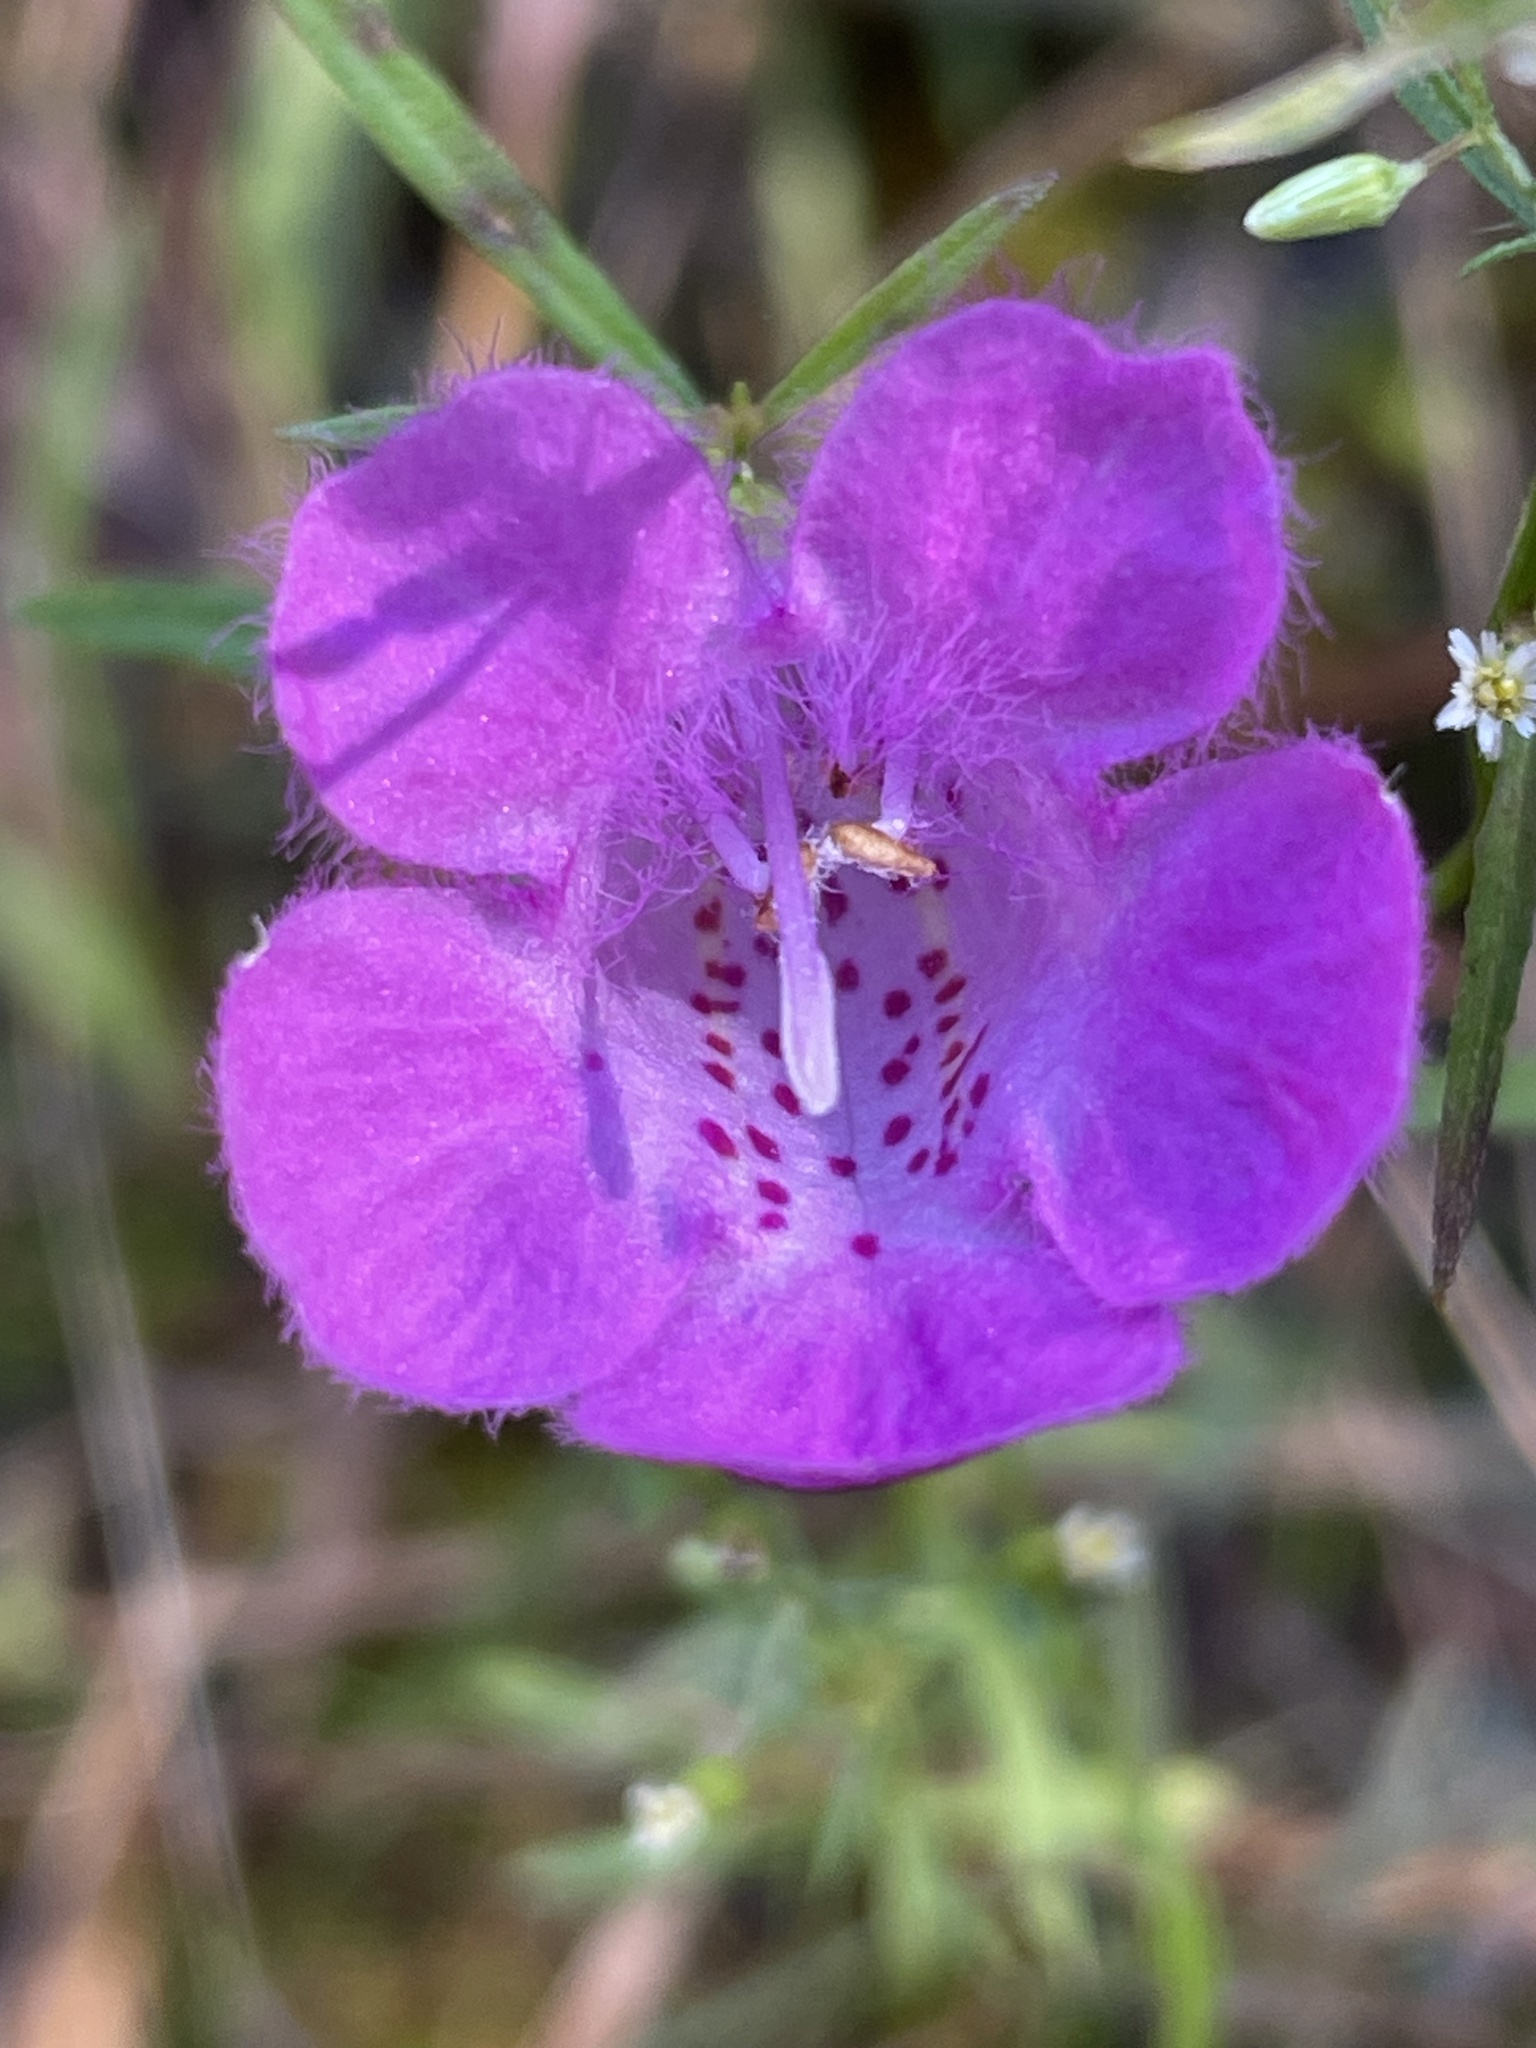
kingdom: Plantae
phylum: Tracheophyta
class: Magnoliopsida
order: Lamiales
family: Orobanchaceae
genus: Agalinis
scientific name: Agalinis purpurea
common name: Purple false foxglove
